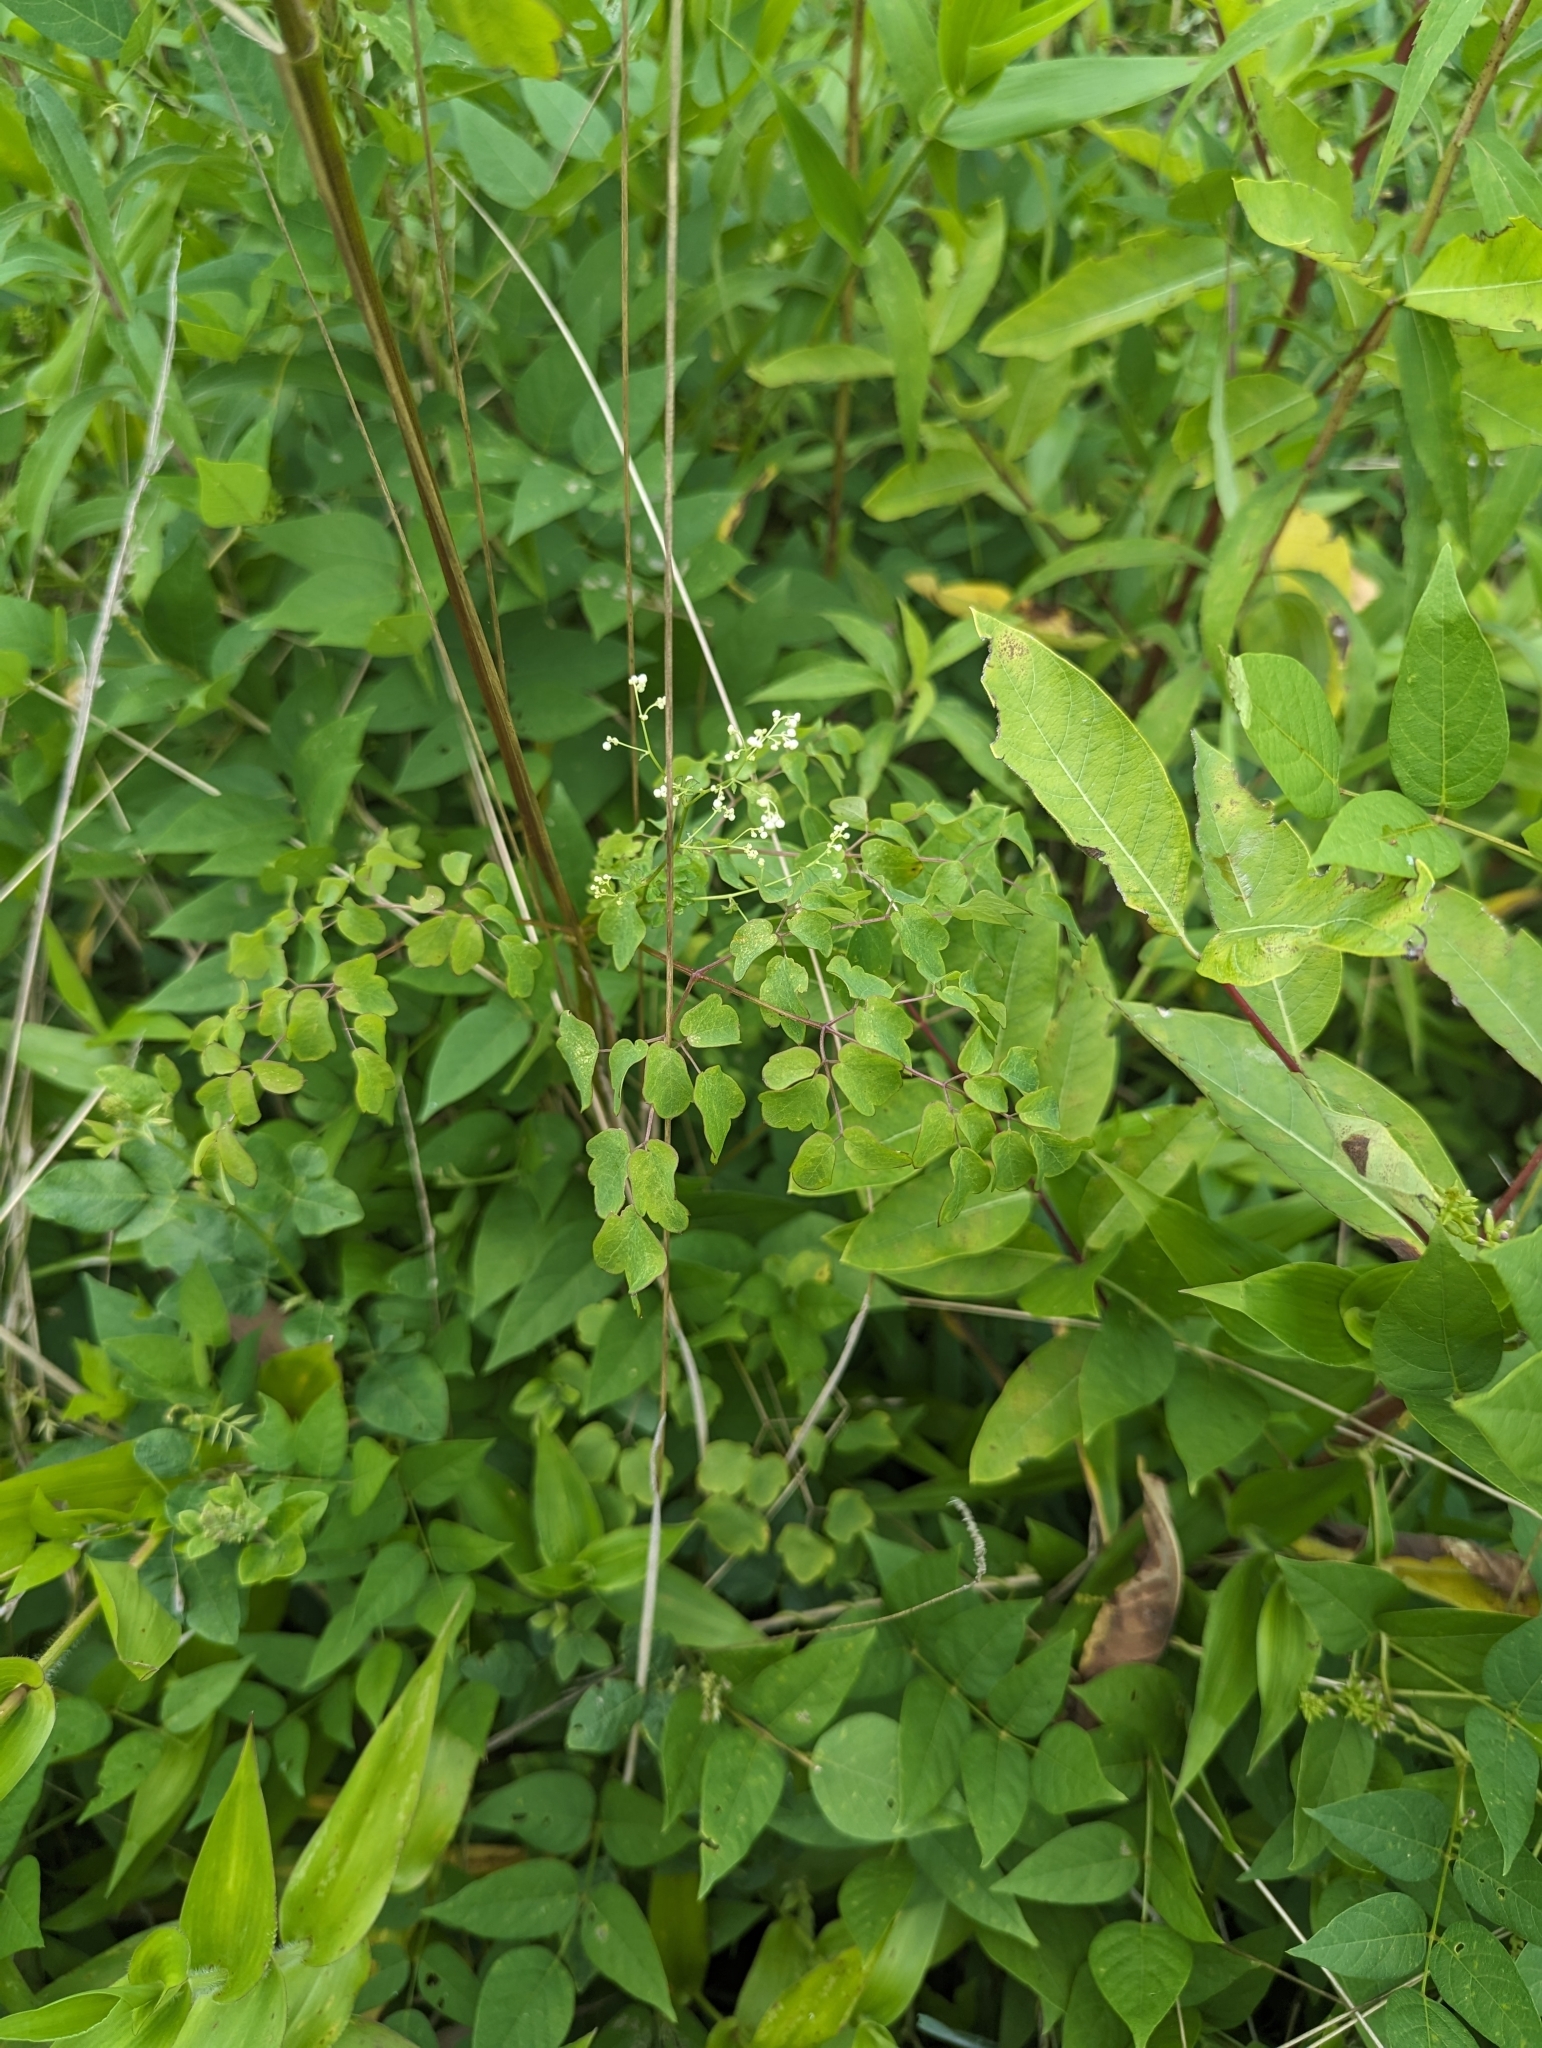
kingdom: Plantae
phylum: Tracheophyta
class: Magnoliopsida
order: Ranunculales
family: Ranunculaceae
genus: Thalictrum
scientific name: Thalictrum pubescens
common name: King-of-the-meadow
